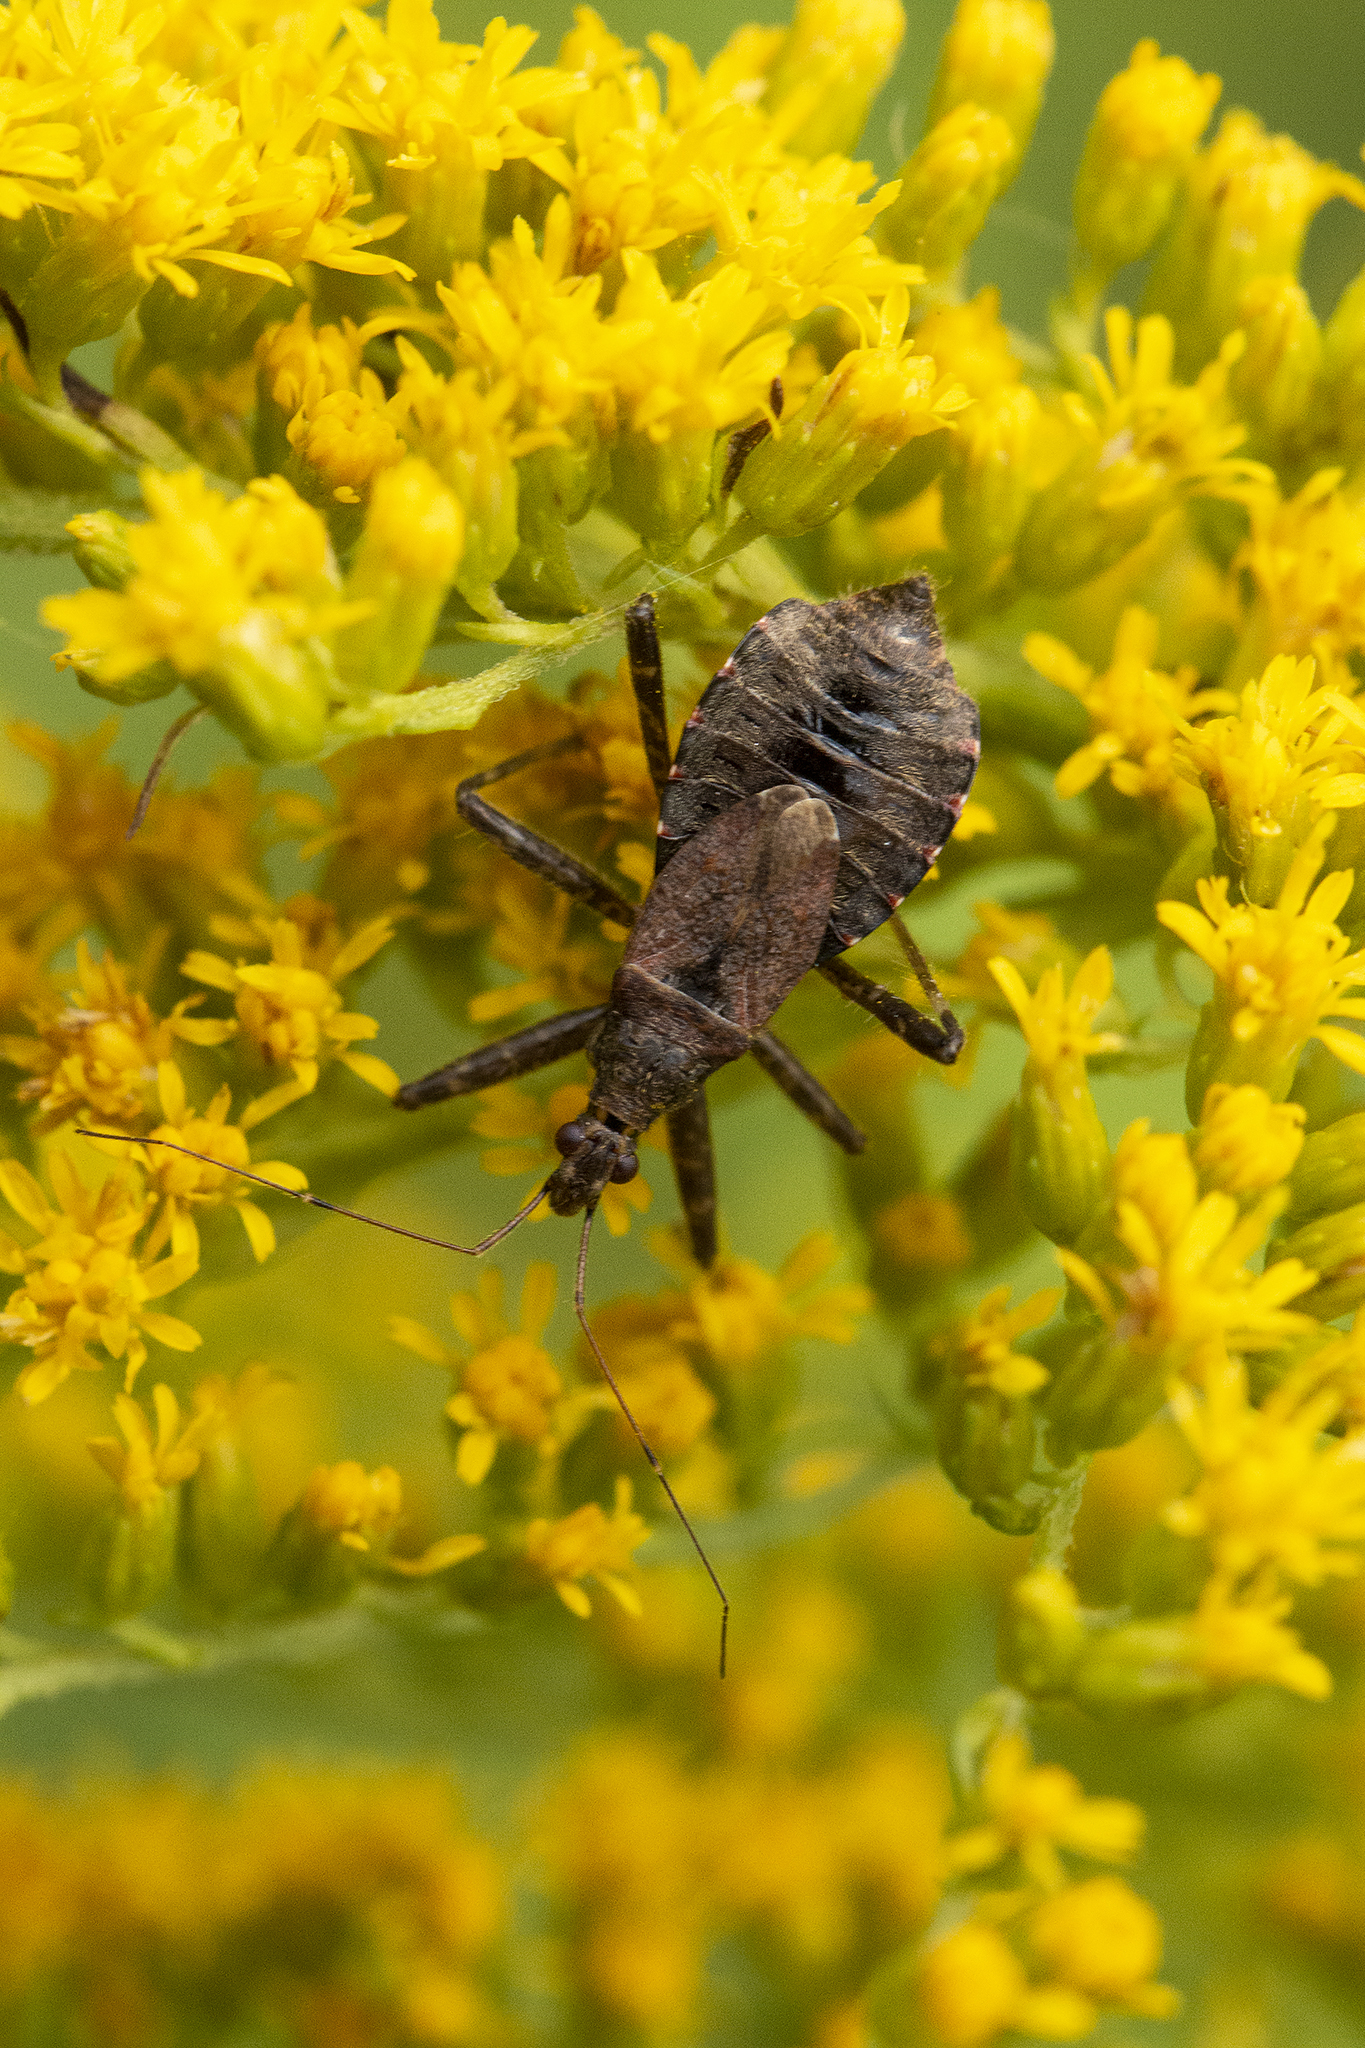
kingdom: Animalia
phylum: Arthropoda
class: Insecta
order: Hemiptera
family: Nabidae
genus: Himacerus
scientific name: Himacerus apterus
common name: Tree damsel bug
